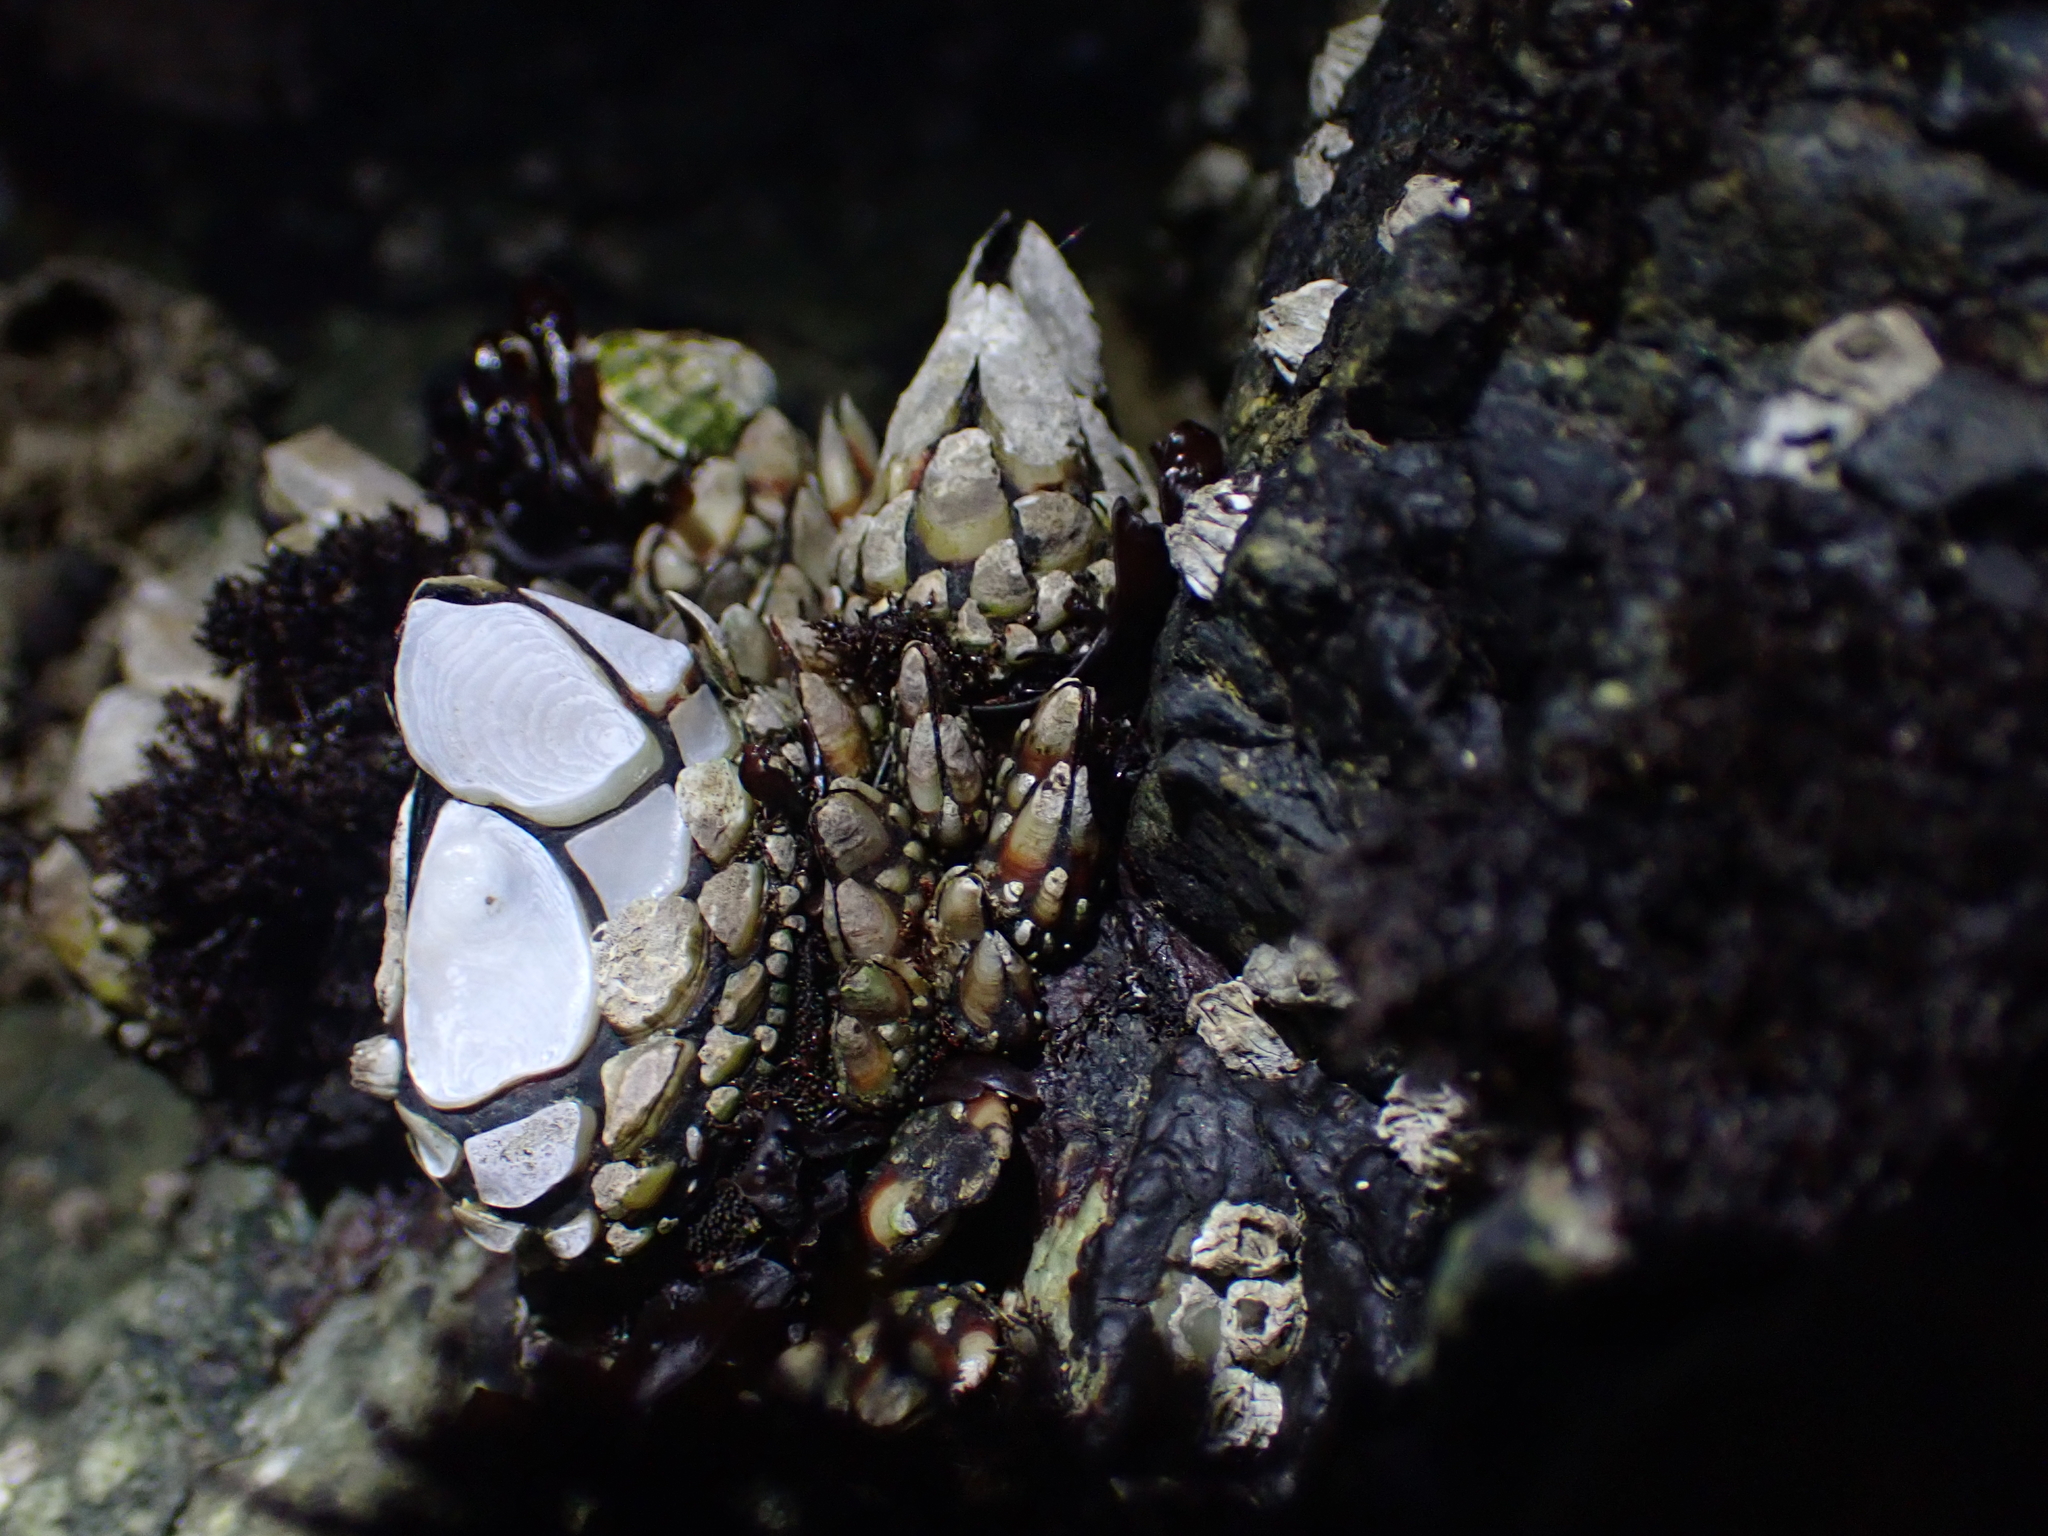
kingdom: Animalia
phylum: Arthropoda
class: Maxillopoda
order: Pedunculata
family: Pollicipedidae
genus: Pollicipes
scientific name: Pollicipes polymerus
